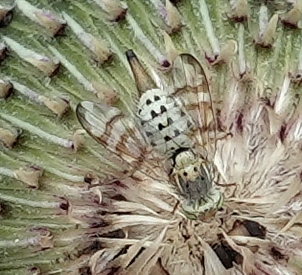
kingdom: Animalia
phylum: Arthropoda
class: Insecta
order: Diptera
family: Tephritidae
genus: Terellia
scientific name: Terellia occidentalis
